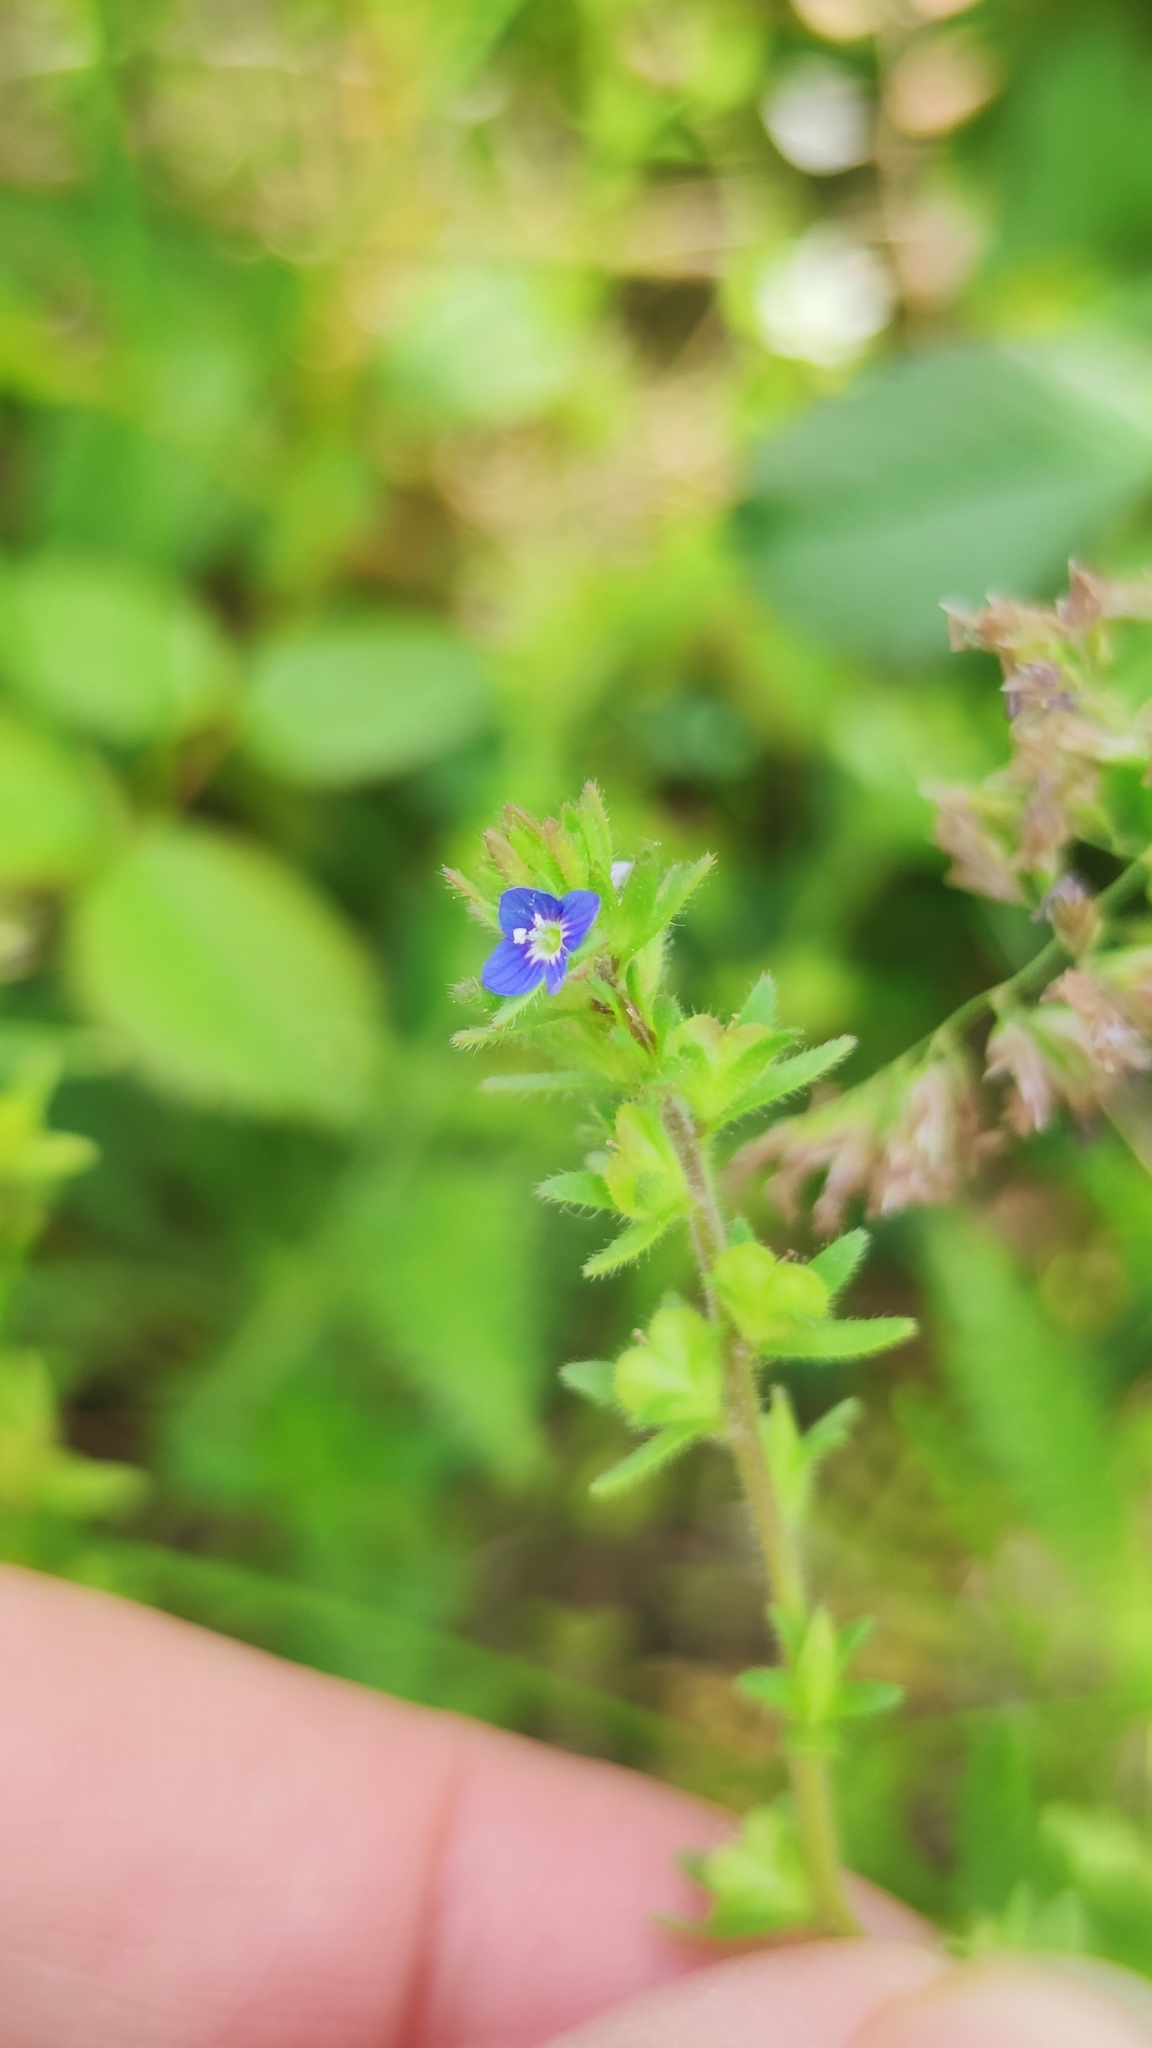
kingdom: Plantae
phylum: Tracheophyta
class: Magnoliopsida
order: Lamiales
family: Plantaginaceae
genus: Veronica
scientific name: Veronica arvensis
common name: Corn speedwell
